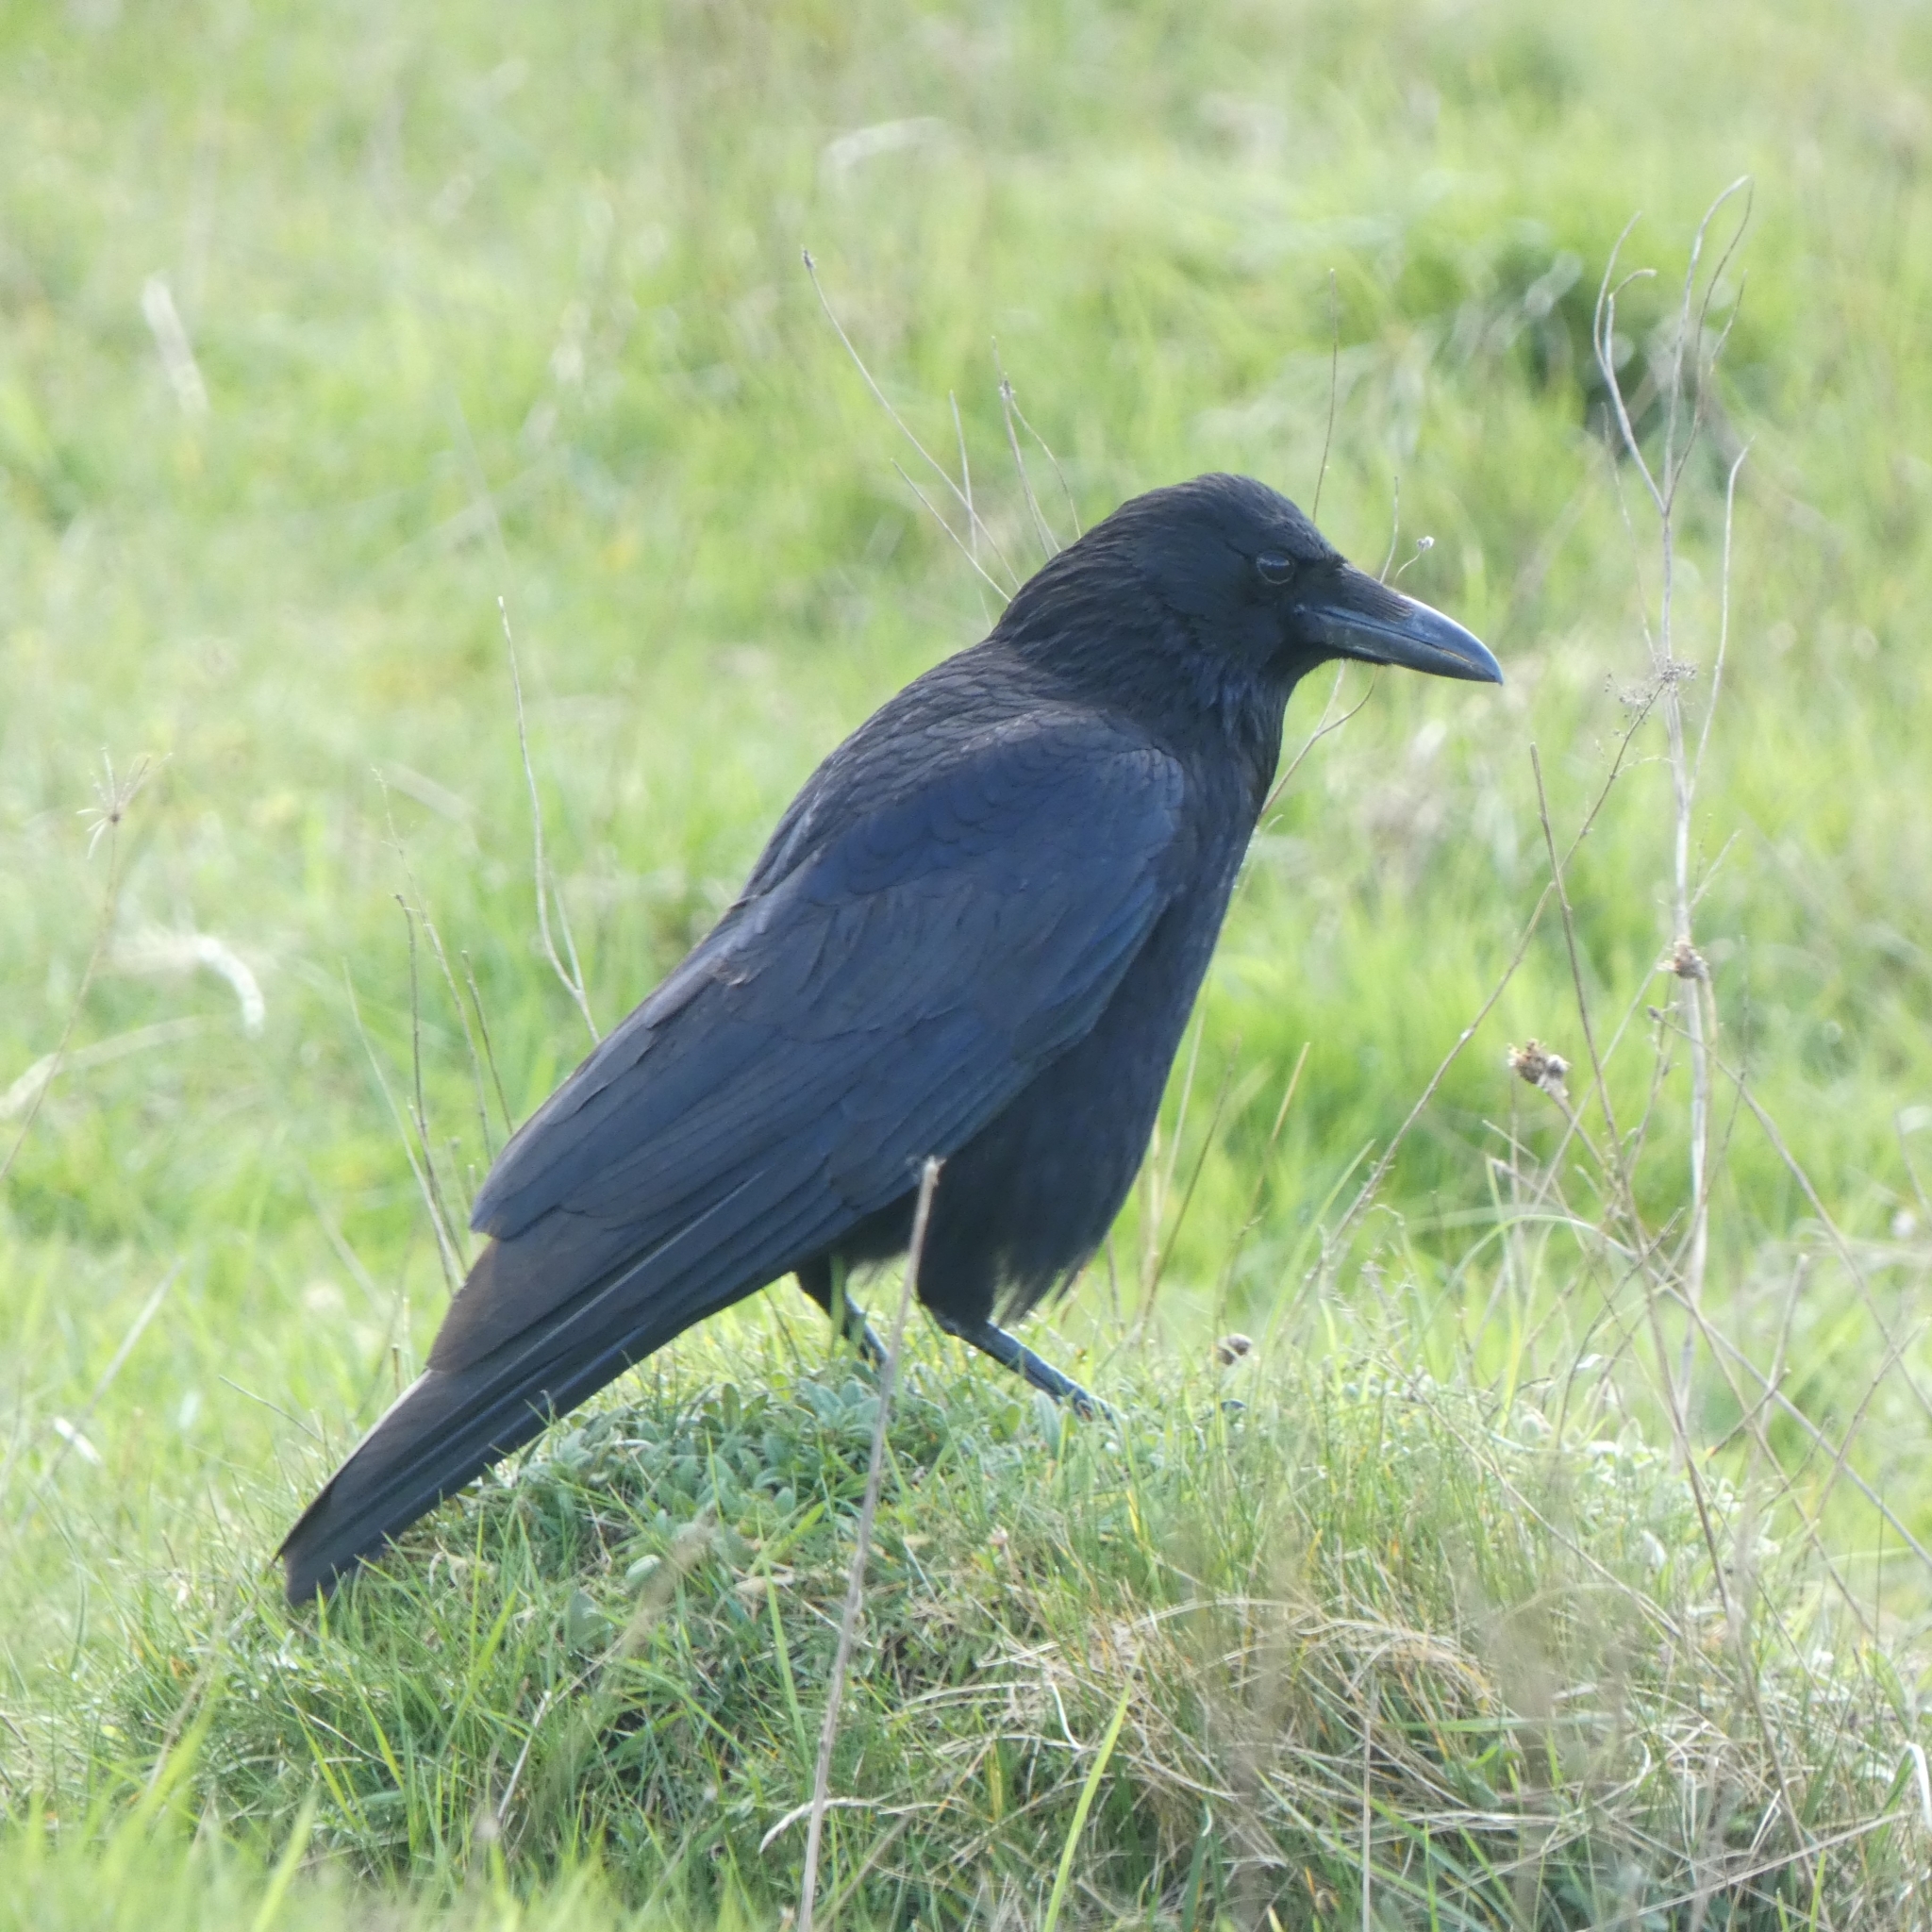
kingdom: Animalia
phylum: Chordata
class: Aves
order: Passeriformes
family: Corvidae
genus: Corvus
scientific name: Corvus corone
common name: Carrion crow
